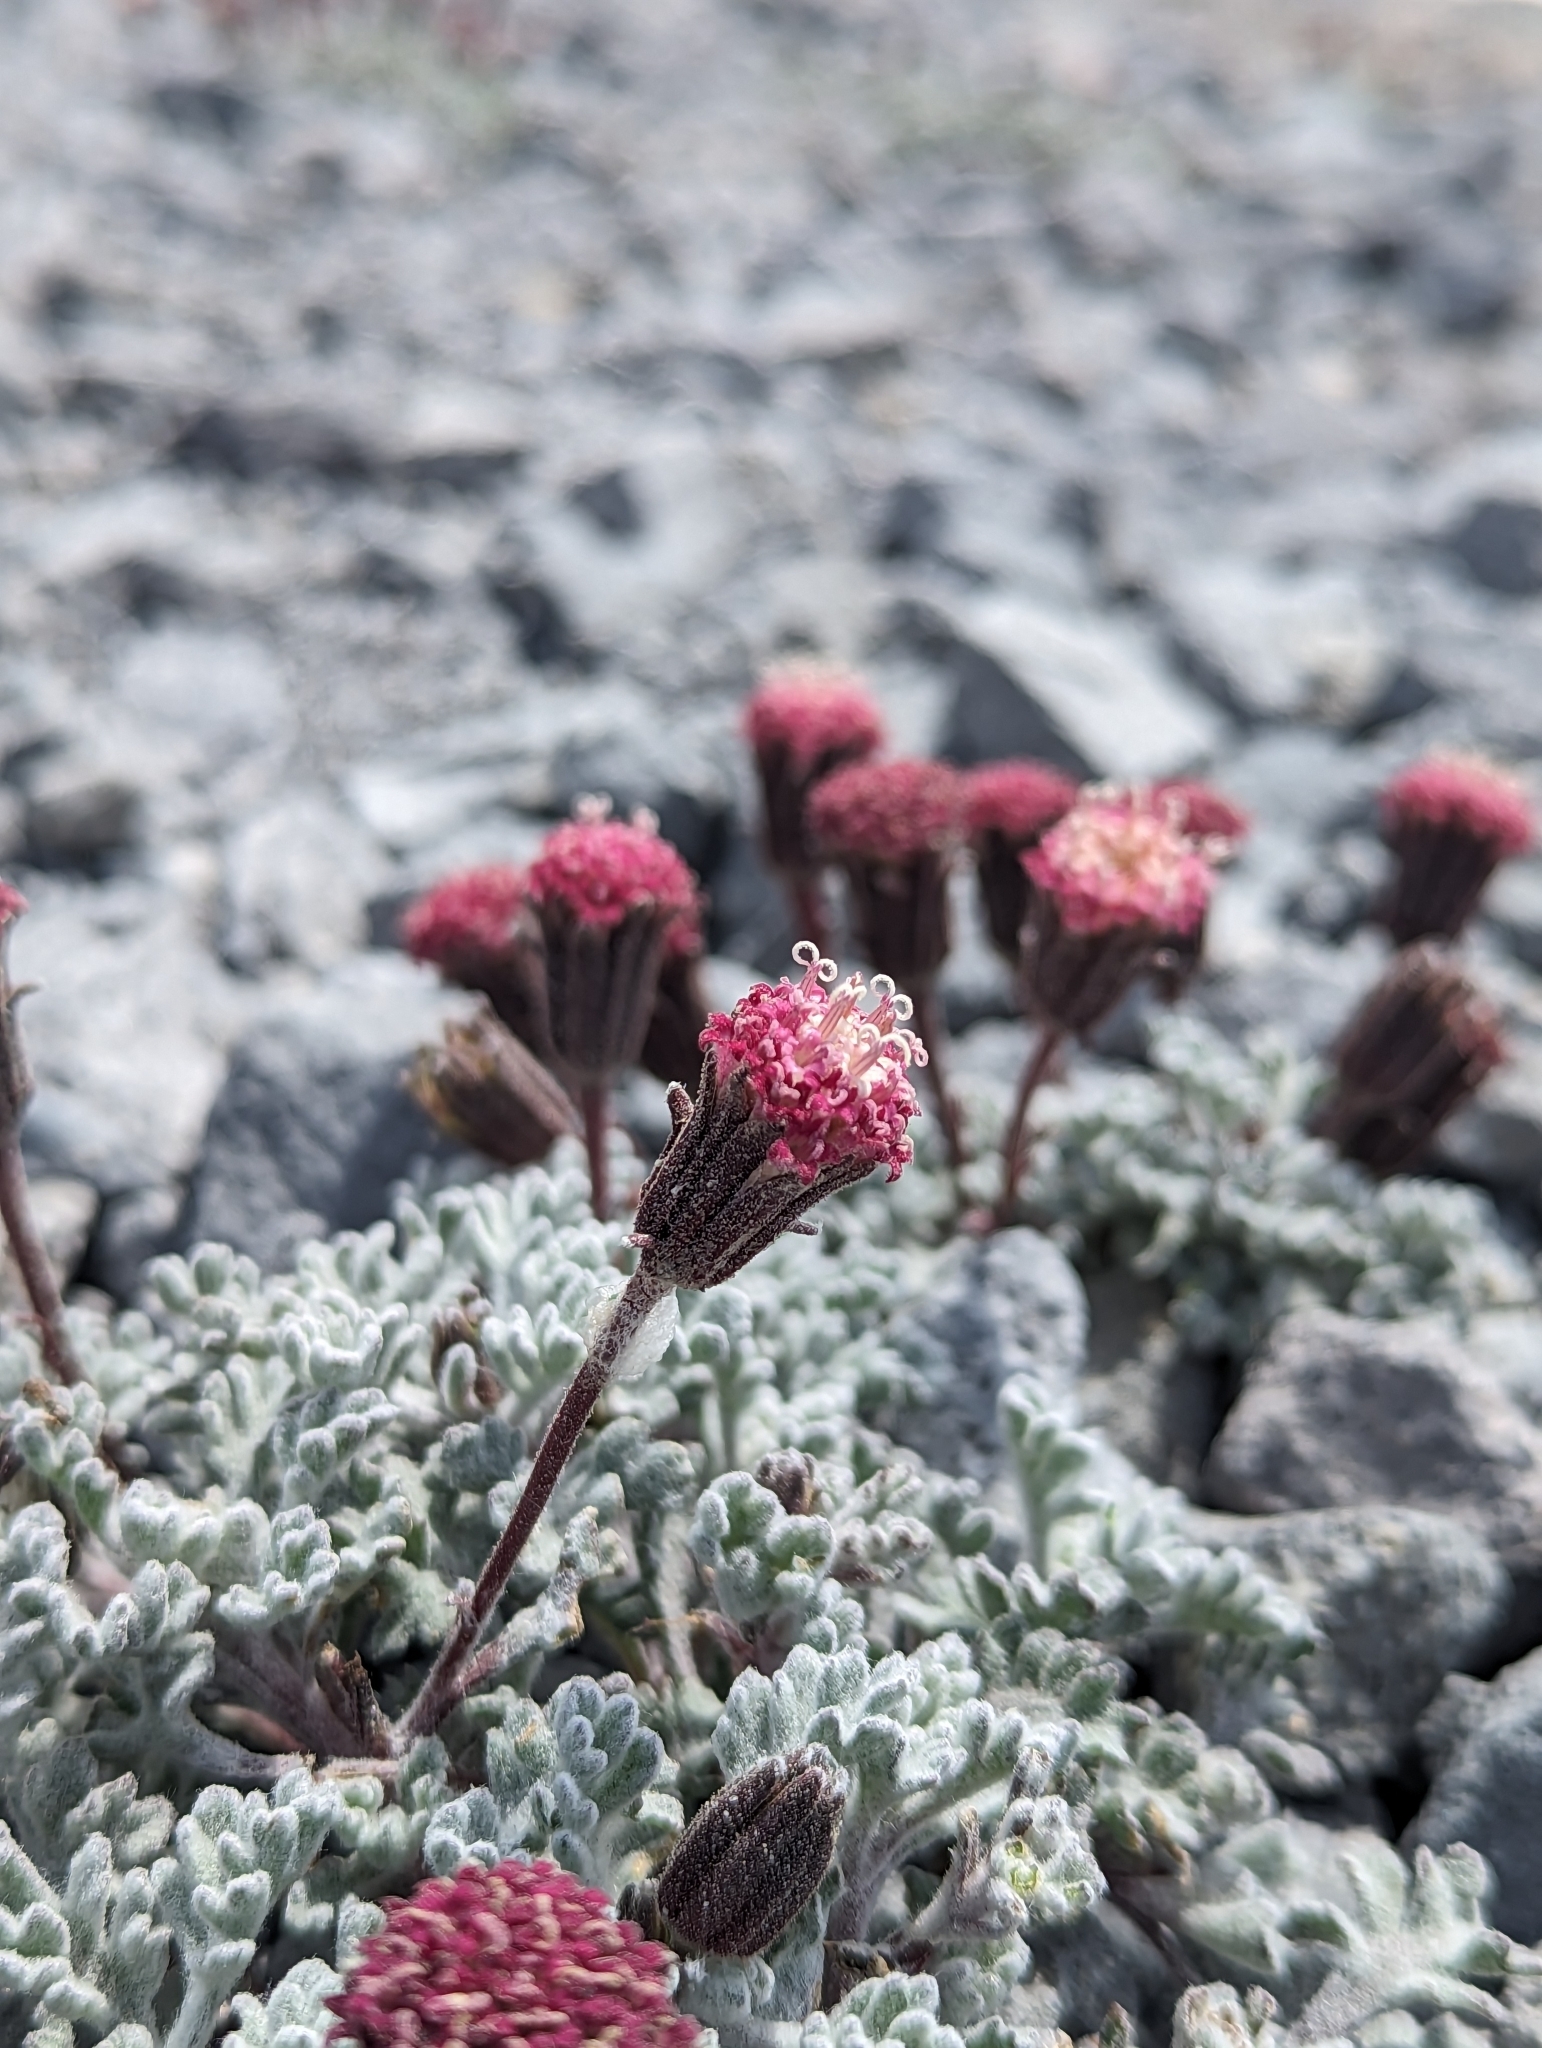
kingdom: Plantae
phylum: Tracheophyta
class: Magnoliopsida
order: Asterales
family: Asteraceae
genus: Chaenactis
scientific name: Chaenactis nevadensis
